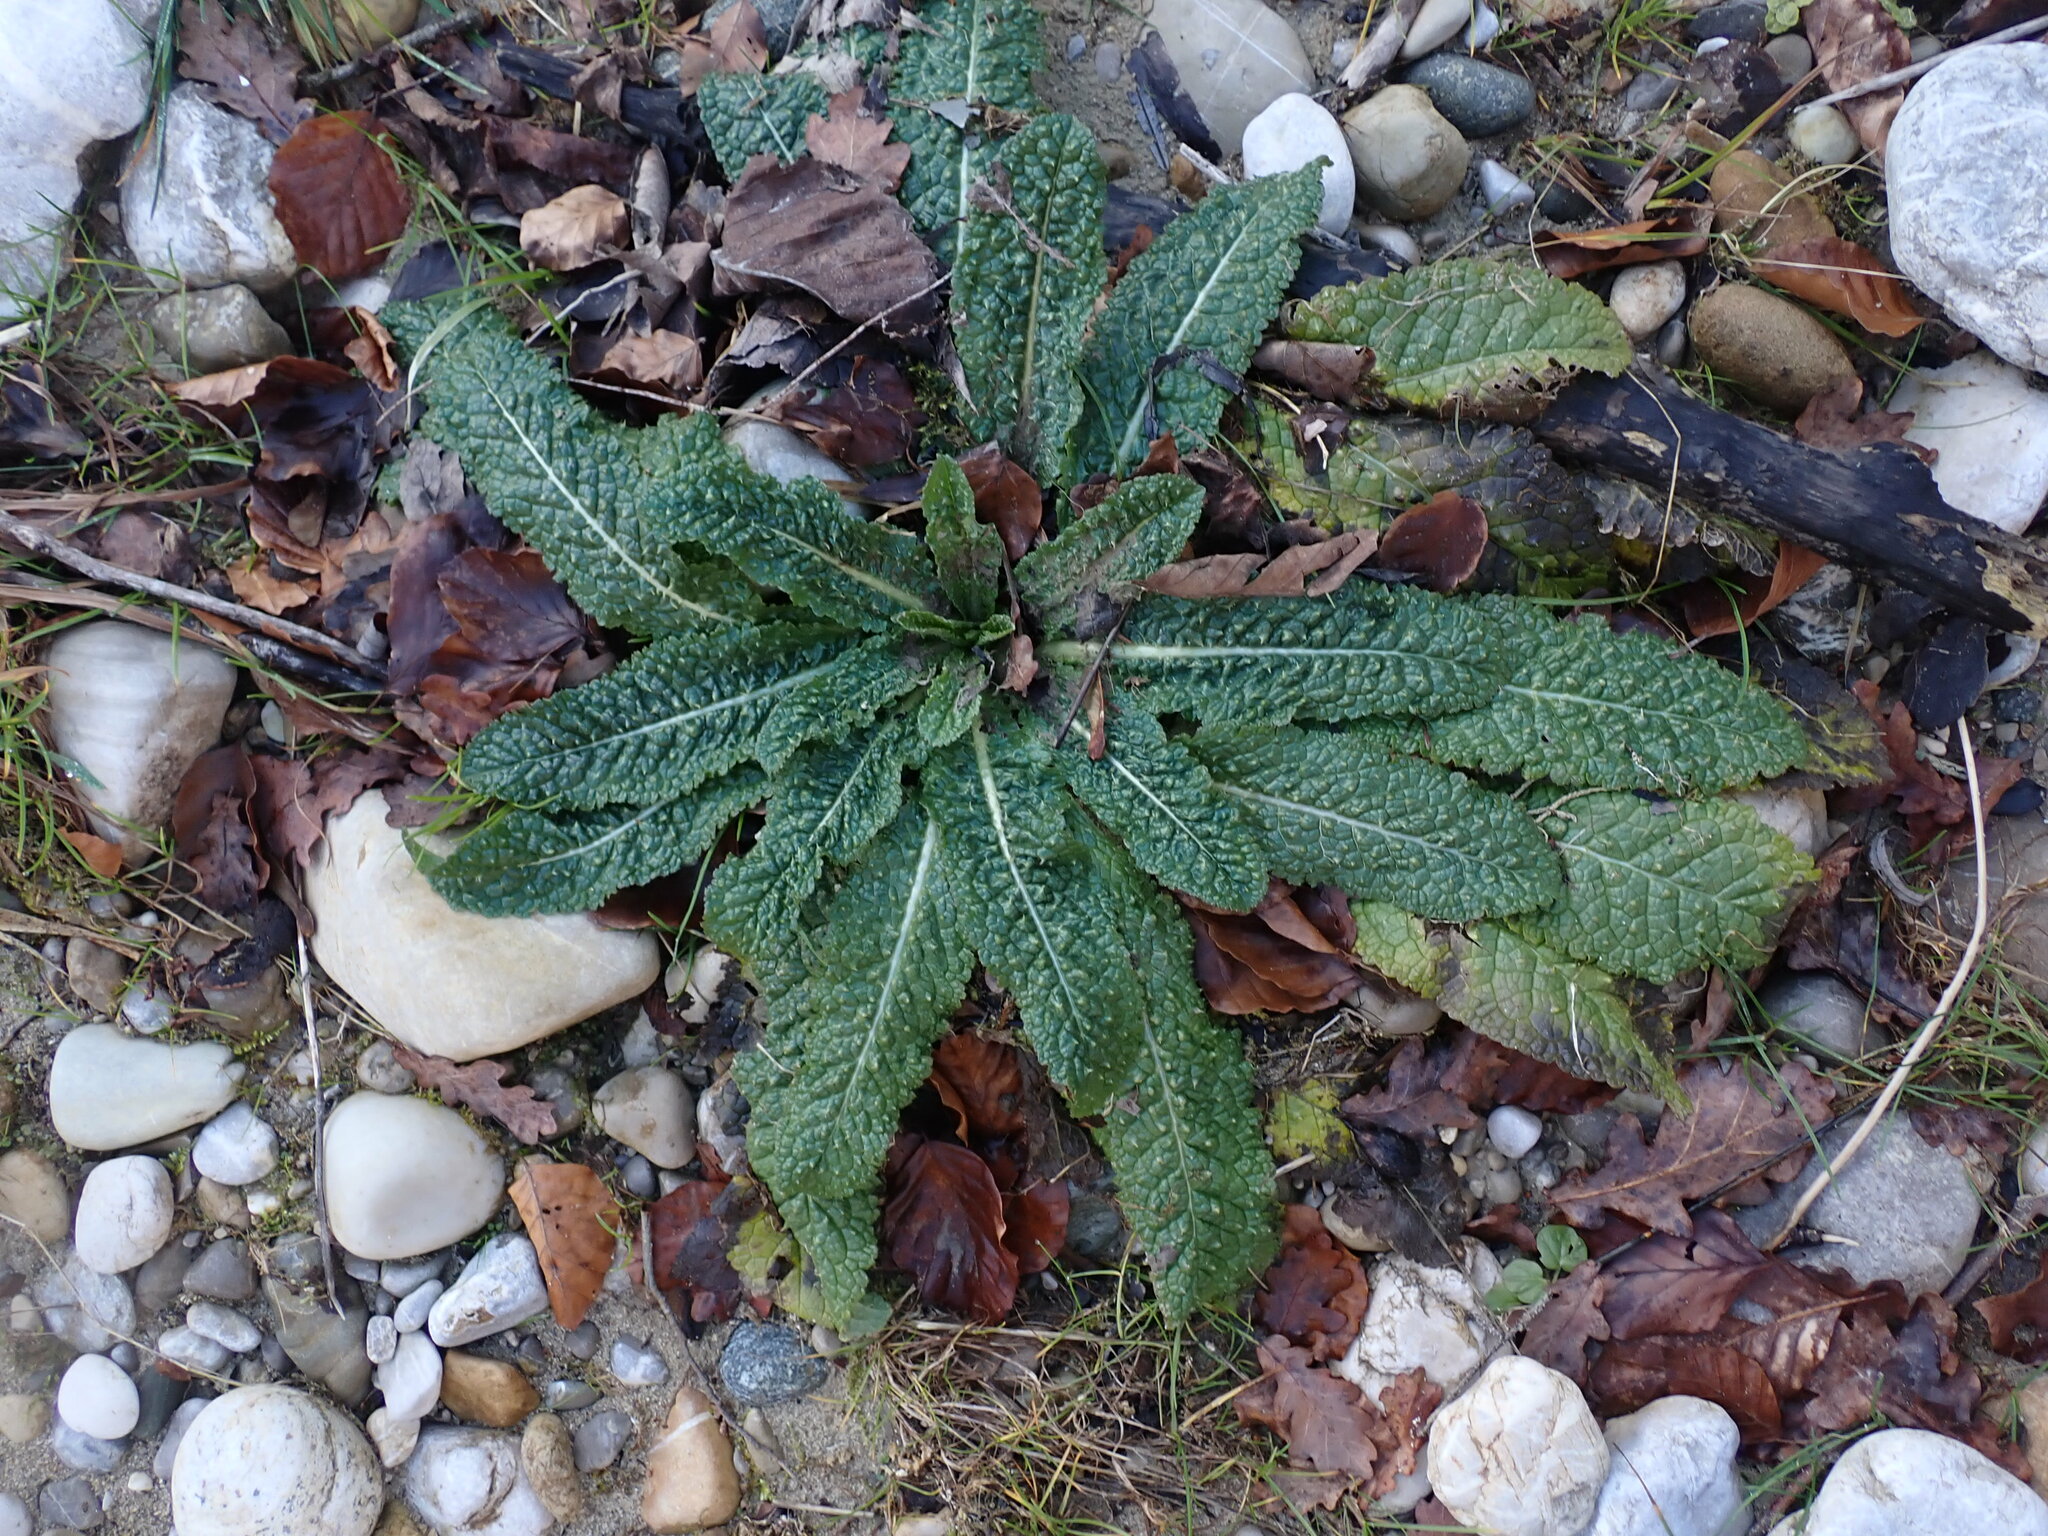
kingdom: Plantae
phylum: Tracheophyta
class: Magnoliopsida
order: Dipsacales
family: Caprifoliaceae
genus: Dipsacus
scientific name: Dipsacus fullonum
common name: Teasel
